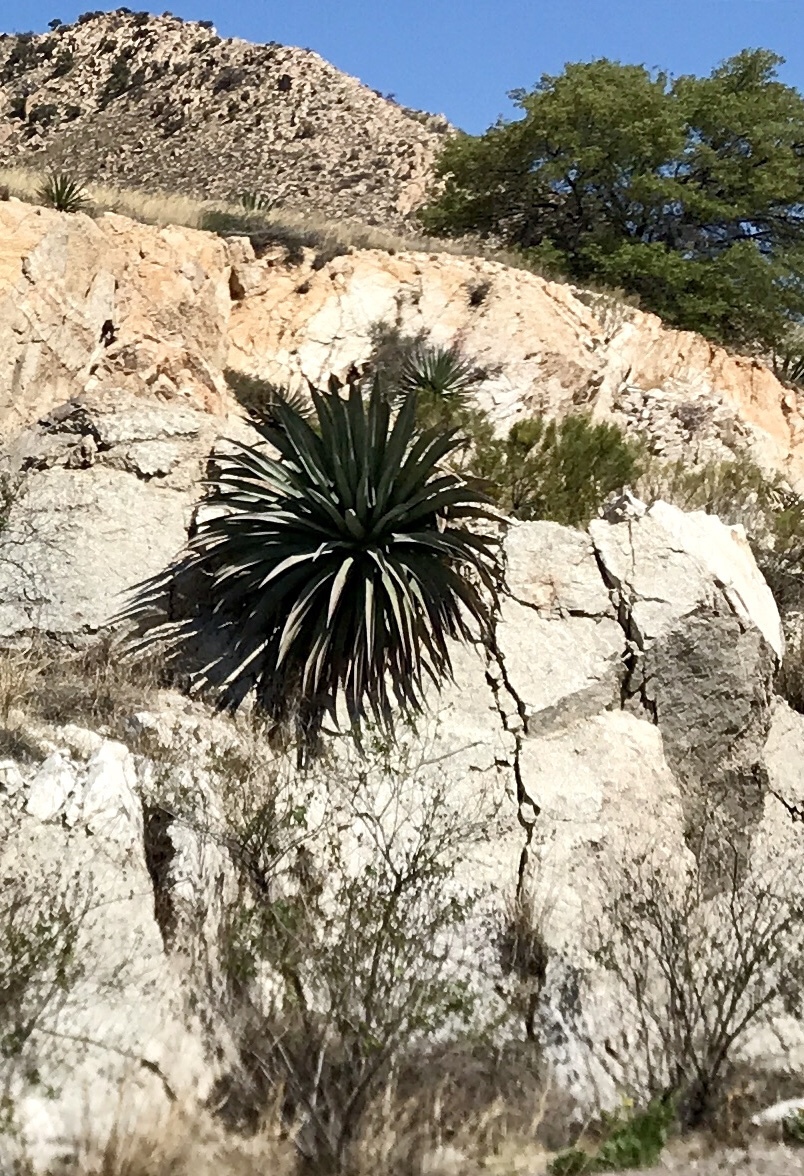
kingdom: Plantae
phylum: Tracheophyta
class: Liliopsida
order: Asparagales
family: Asparagaceae
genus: Agave
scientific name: Agave palmeri
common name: Palmer agave
